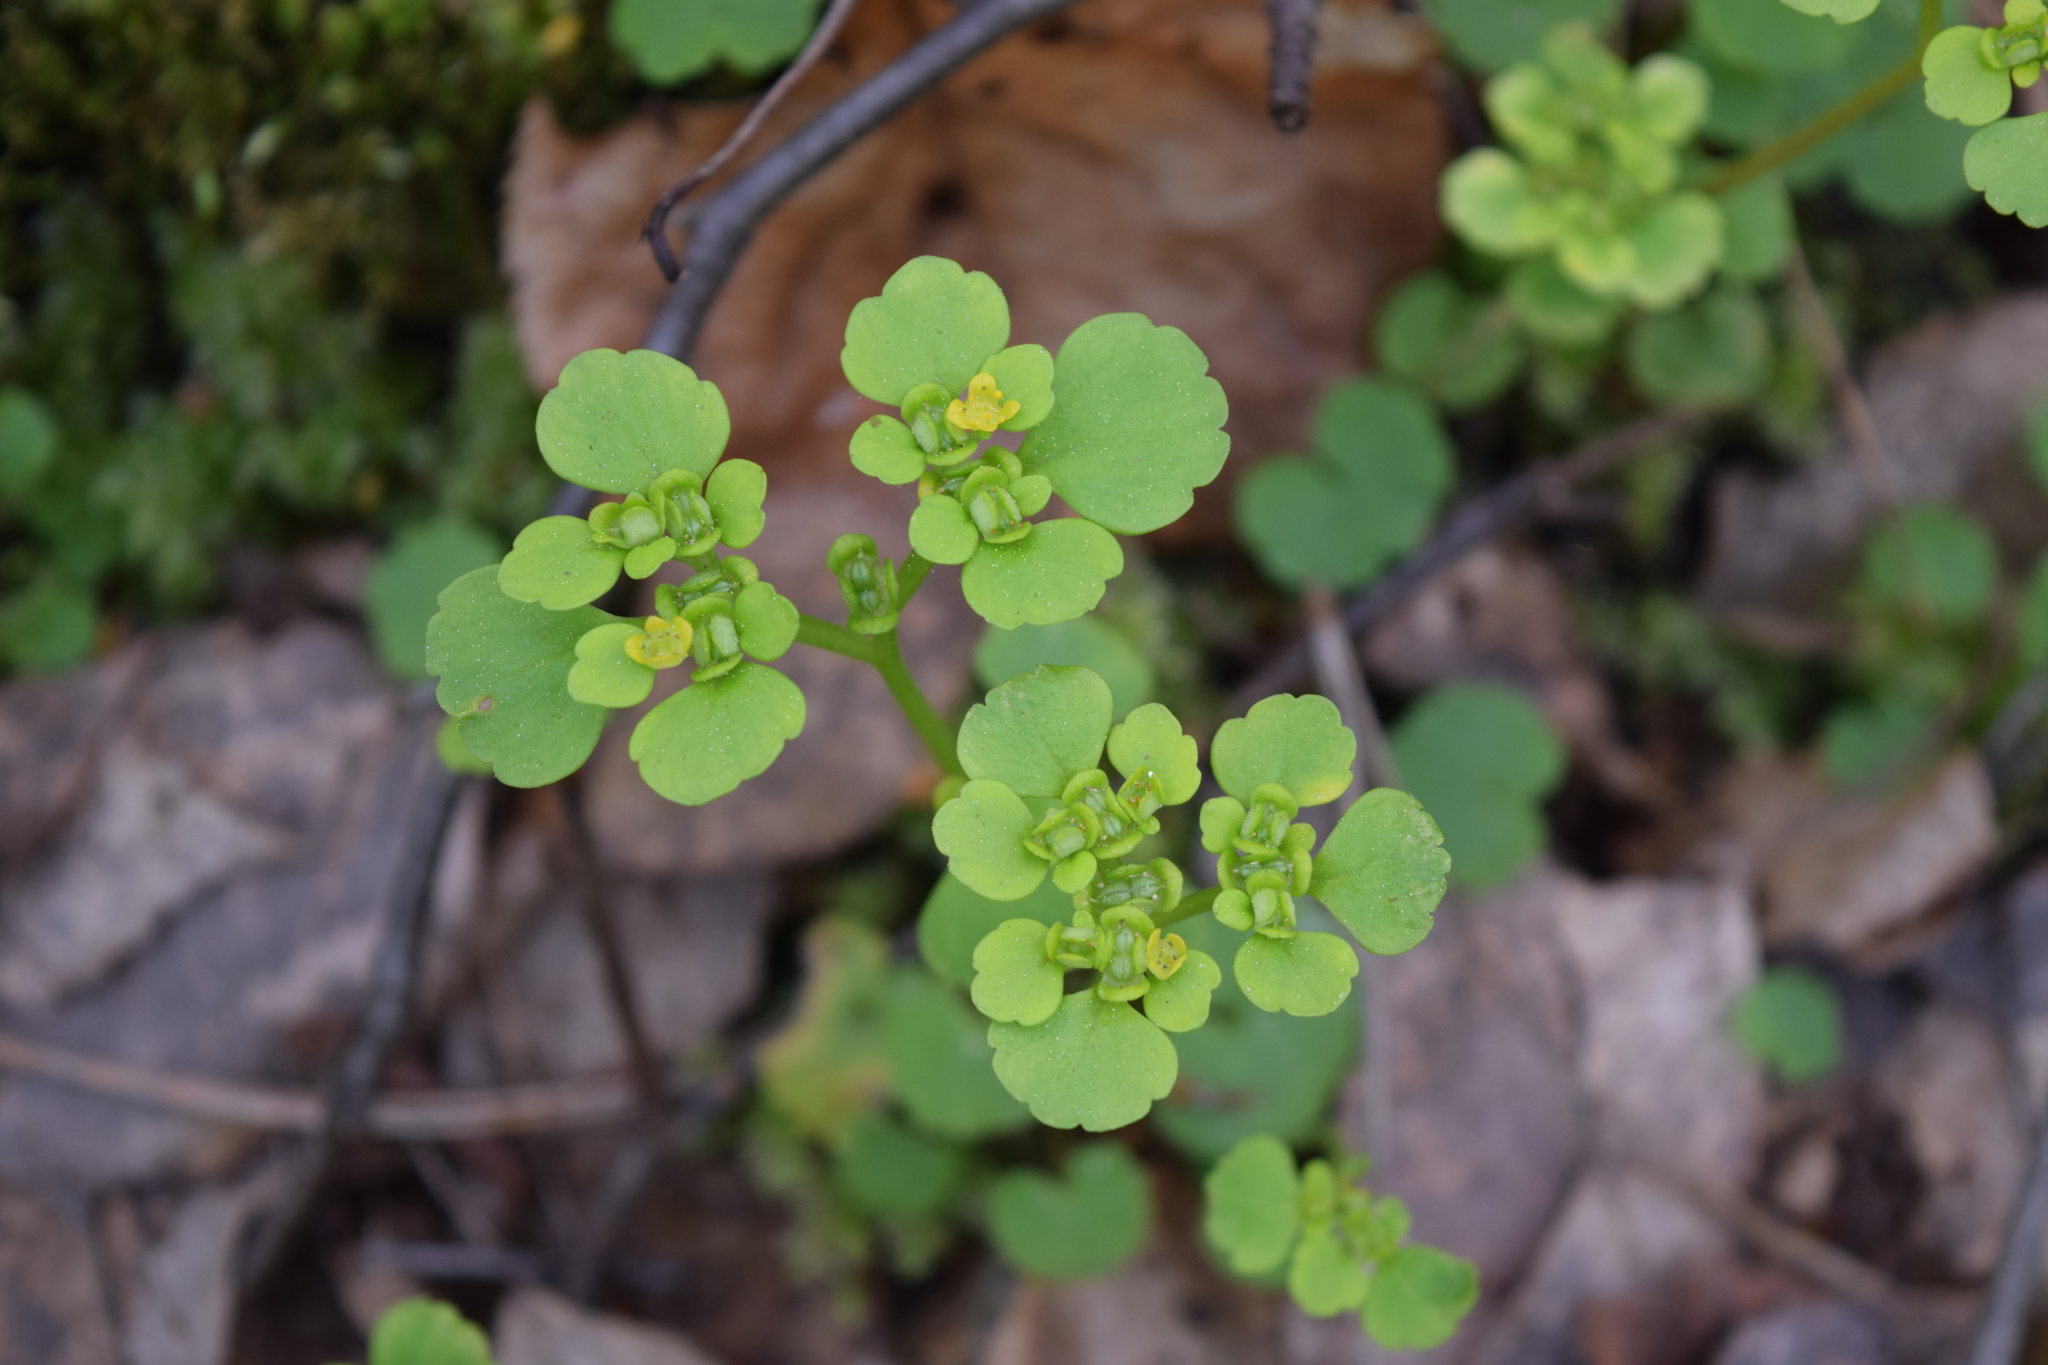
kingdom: Plantae
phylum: Tracheophyta
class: Magnoliopsida
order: Saxifragales
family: Saxifragaceae
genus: Chrysosplenium
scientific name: Chrysosplenium alternifolium
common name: Alternate-leaved golden-saxifrage
